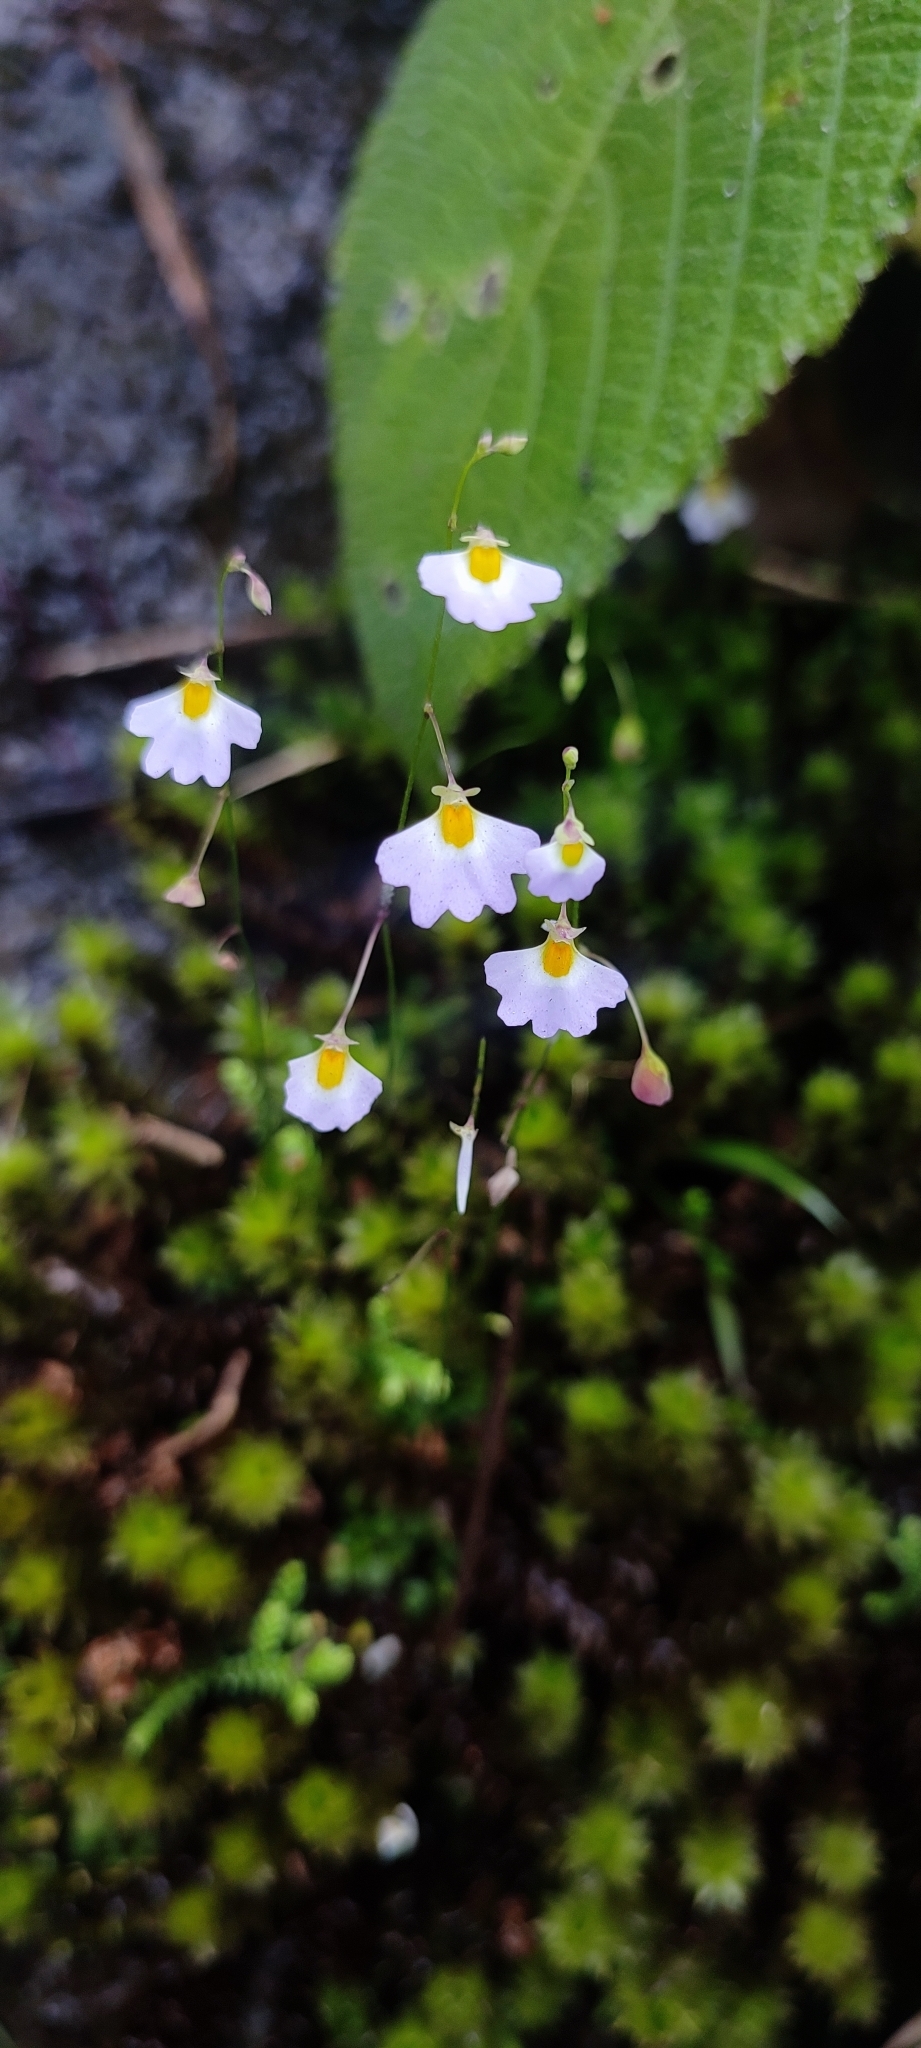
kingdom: Plantae
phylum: Tracheophyta
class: Magnoliopsida
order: Lamiales
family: Lentibulariaceae
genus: Utricularia
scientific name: Utricularia striatula
